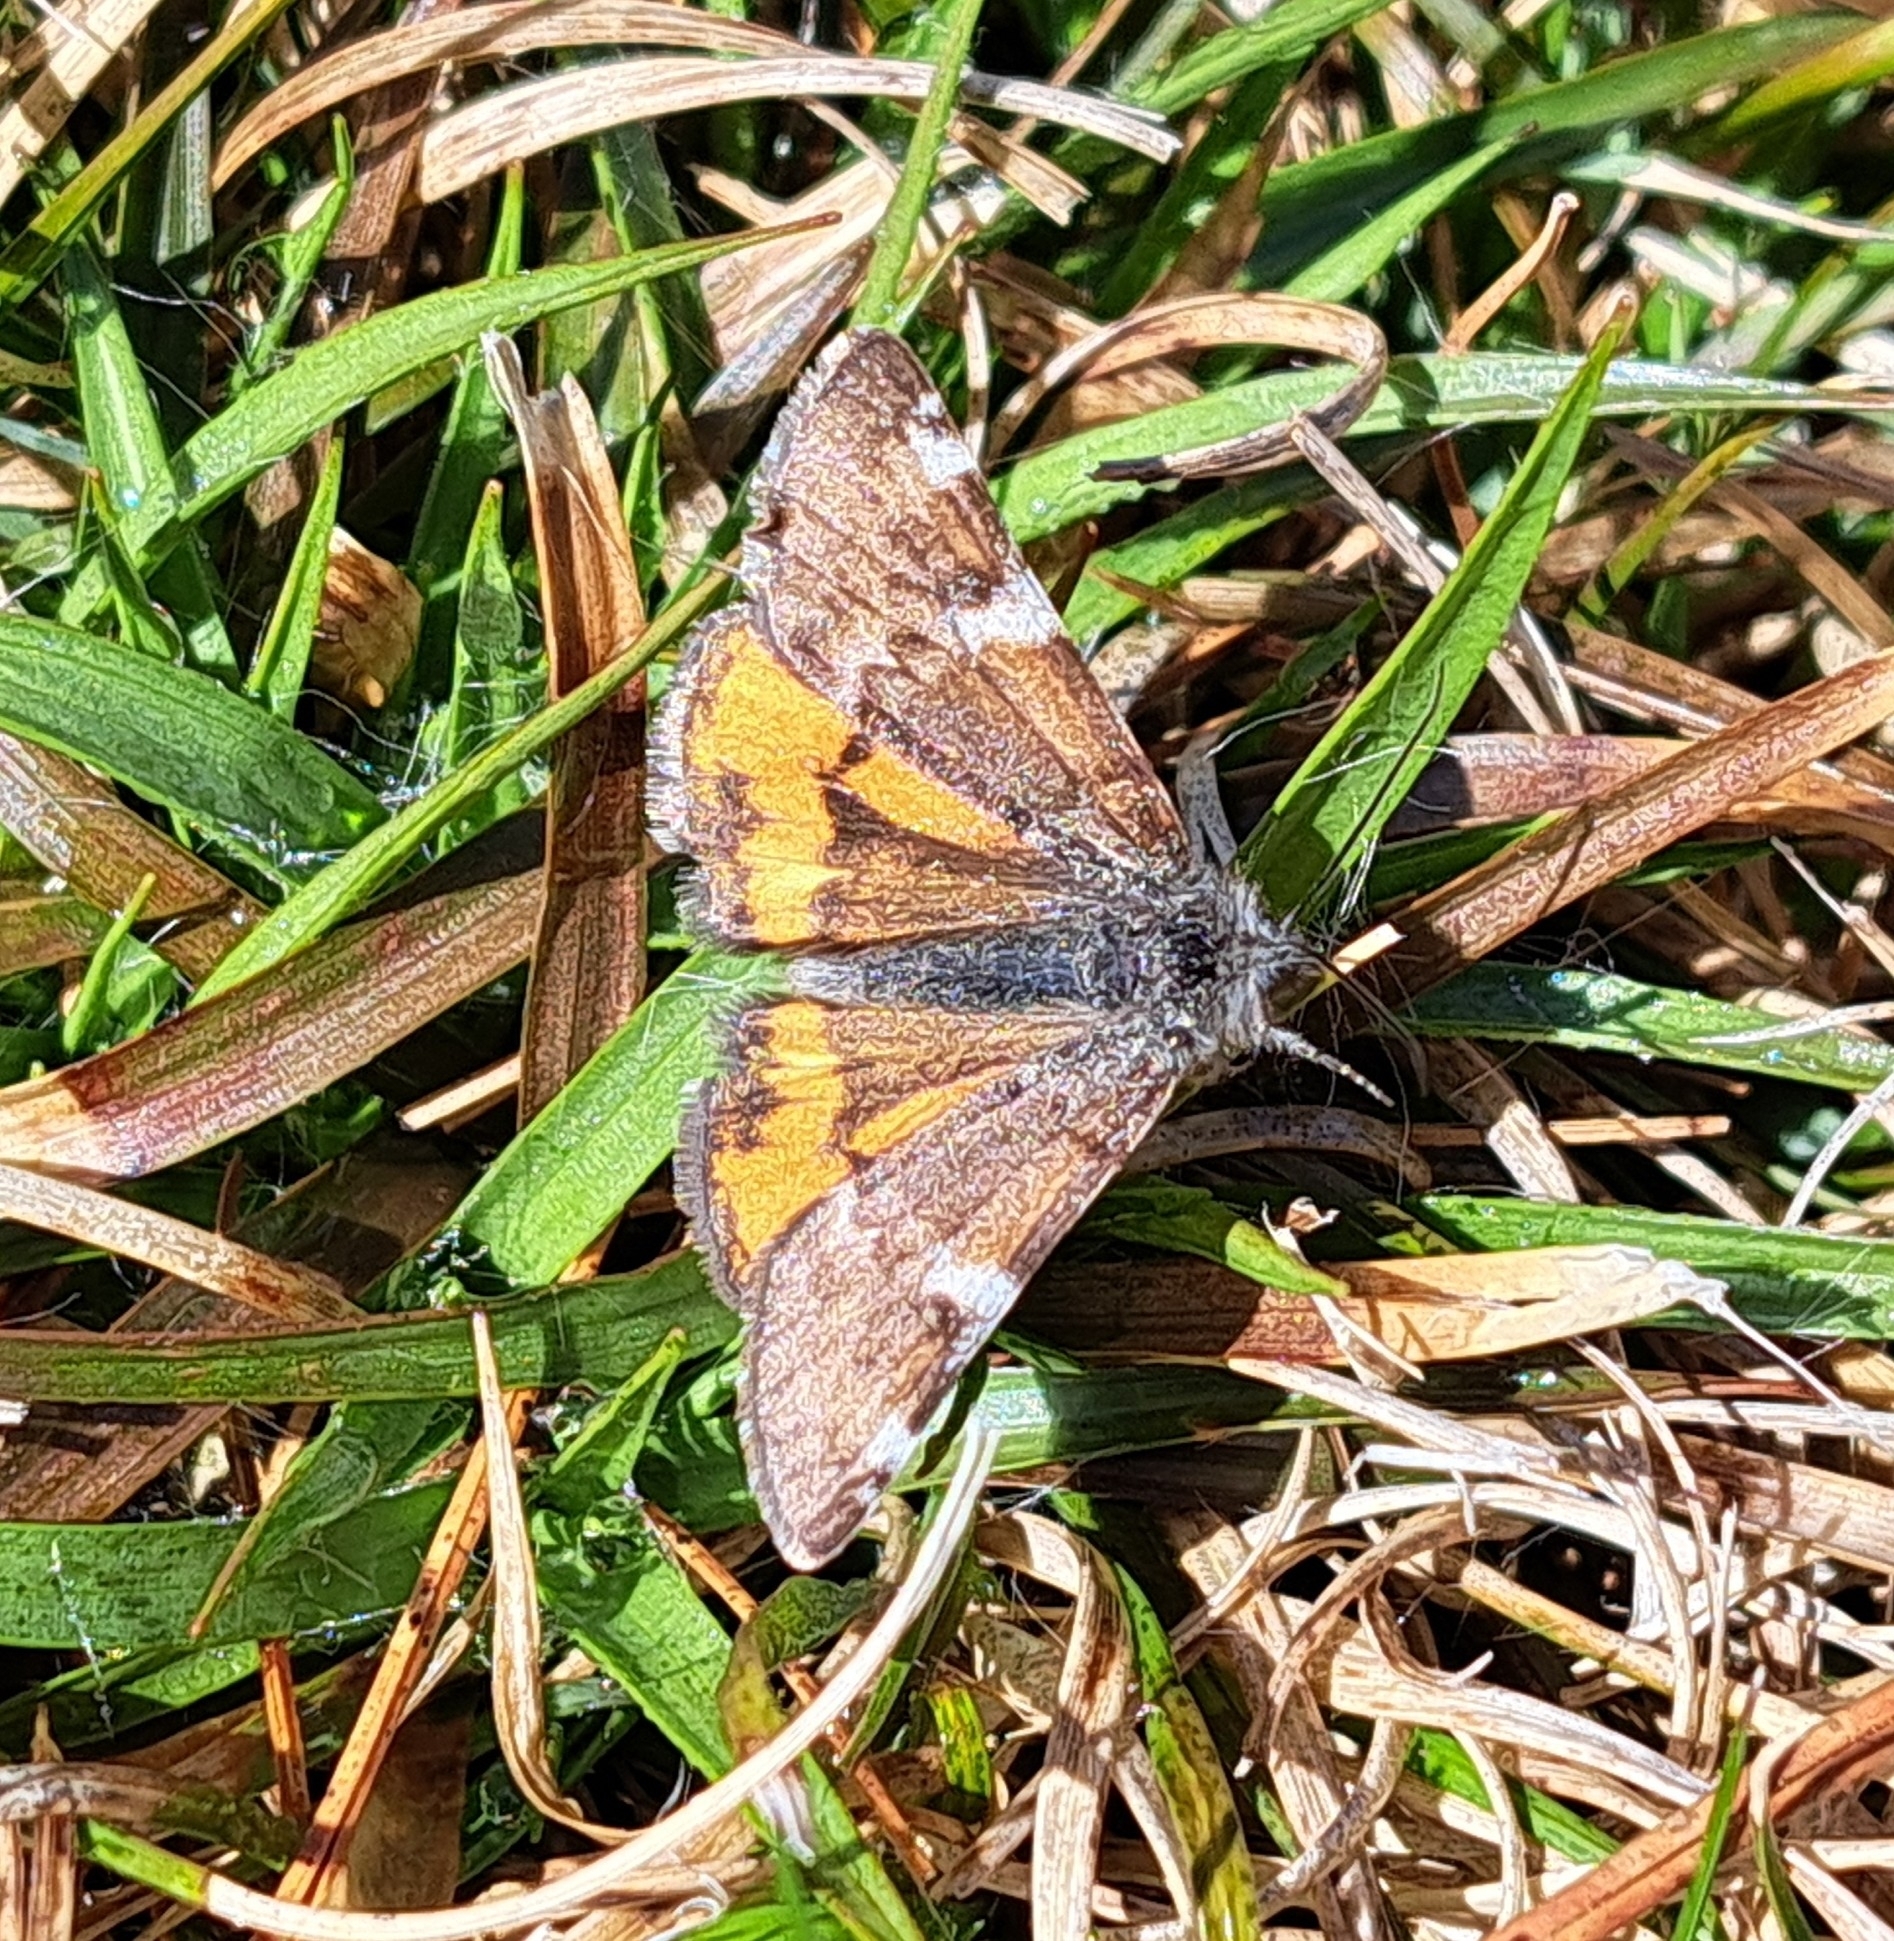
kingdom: Animalia
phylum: Arthropoda
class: Insecta
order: Lepidoptera
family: Geometridae
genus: Archiearis
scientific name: Archiearis infans
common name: First born geometer
